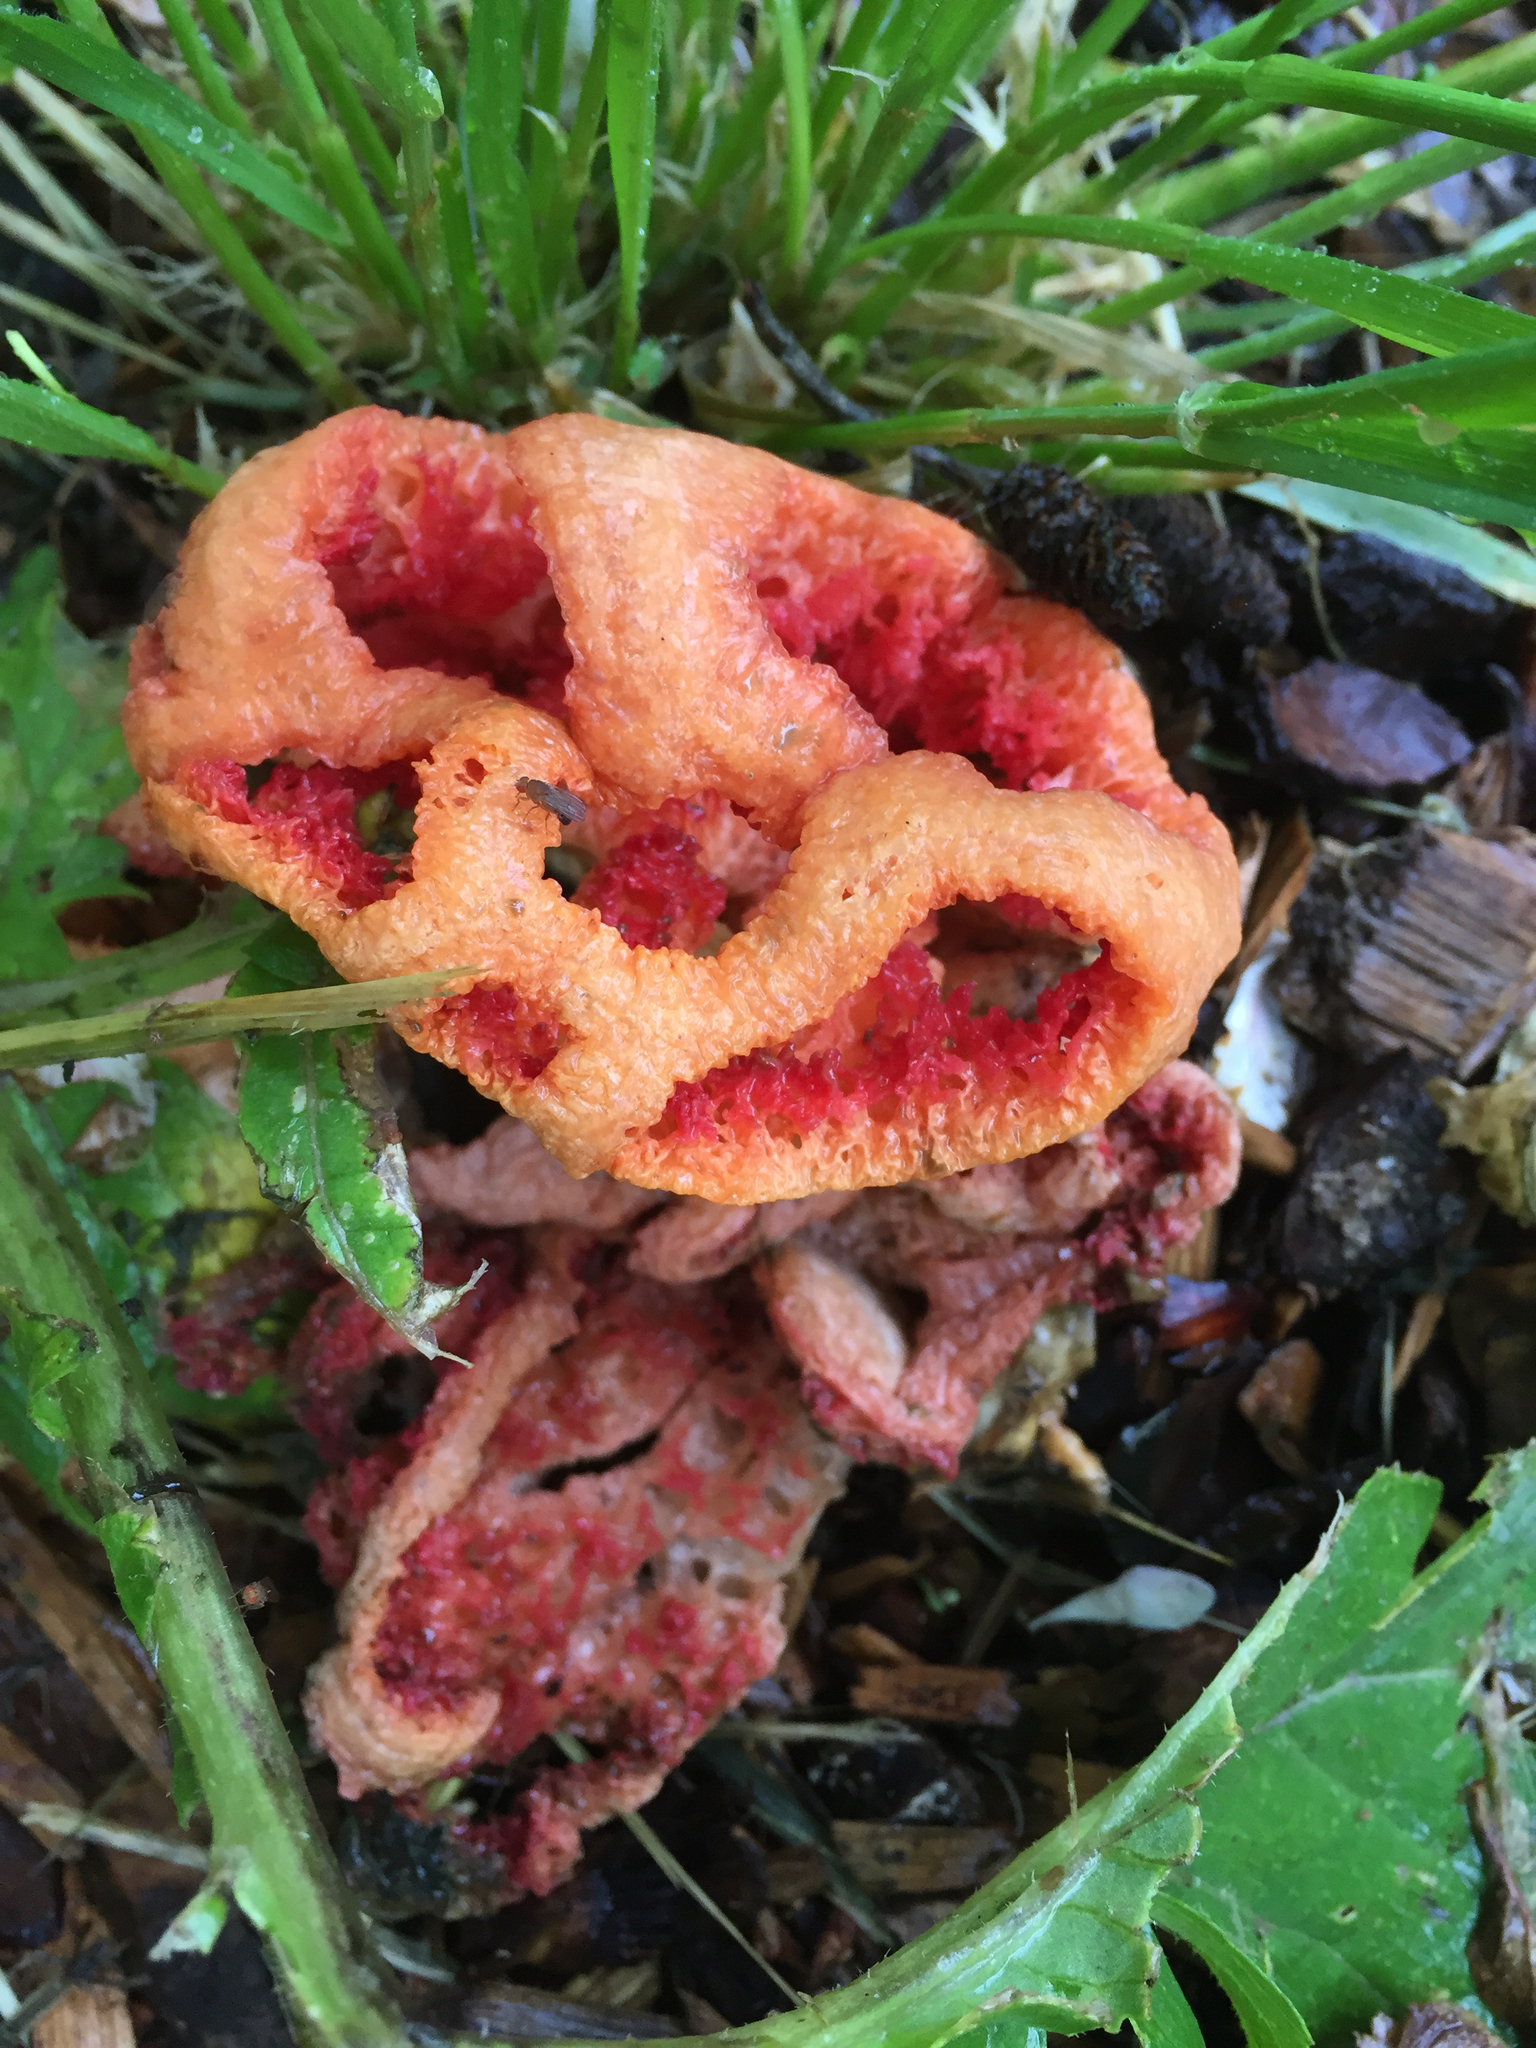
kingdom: Fungi
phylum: Basidiomycota
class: Agaricomycetes
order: Phallales
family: Phallaceae
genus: Clathrus
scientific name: Clathrus ruber
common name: Red cage
